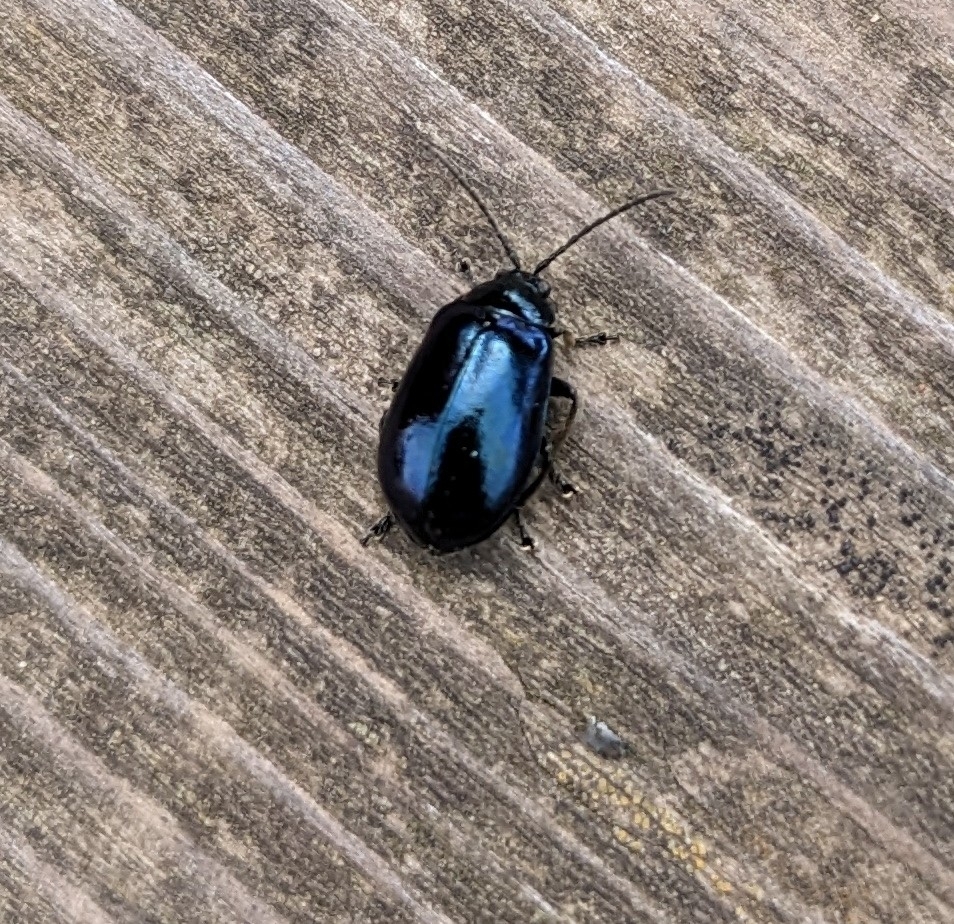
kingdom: Animalia
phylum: Arthropoda
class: Insecta
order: Coleoptera
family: Chrysomelidae
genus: Agelastica
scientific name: Agelastica alni
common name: Alder leaf beetle
